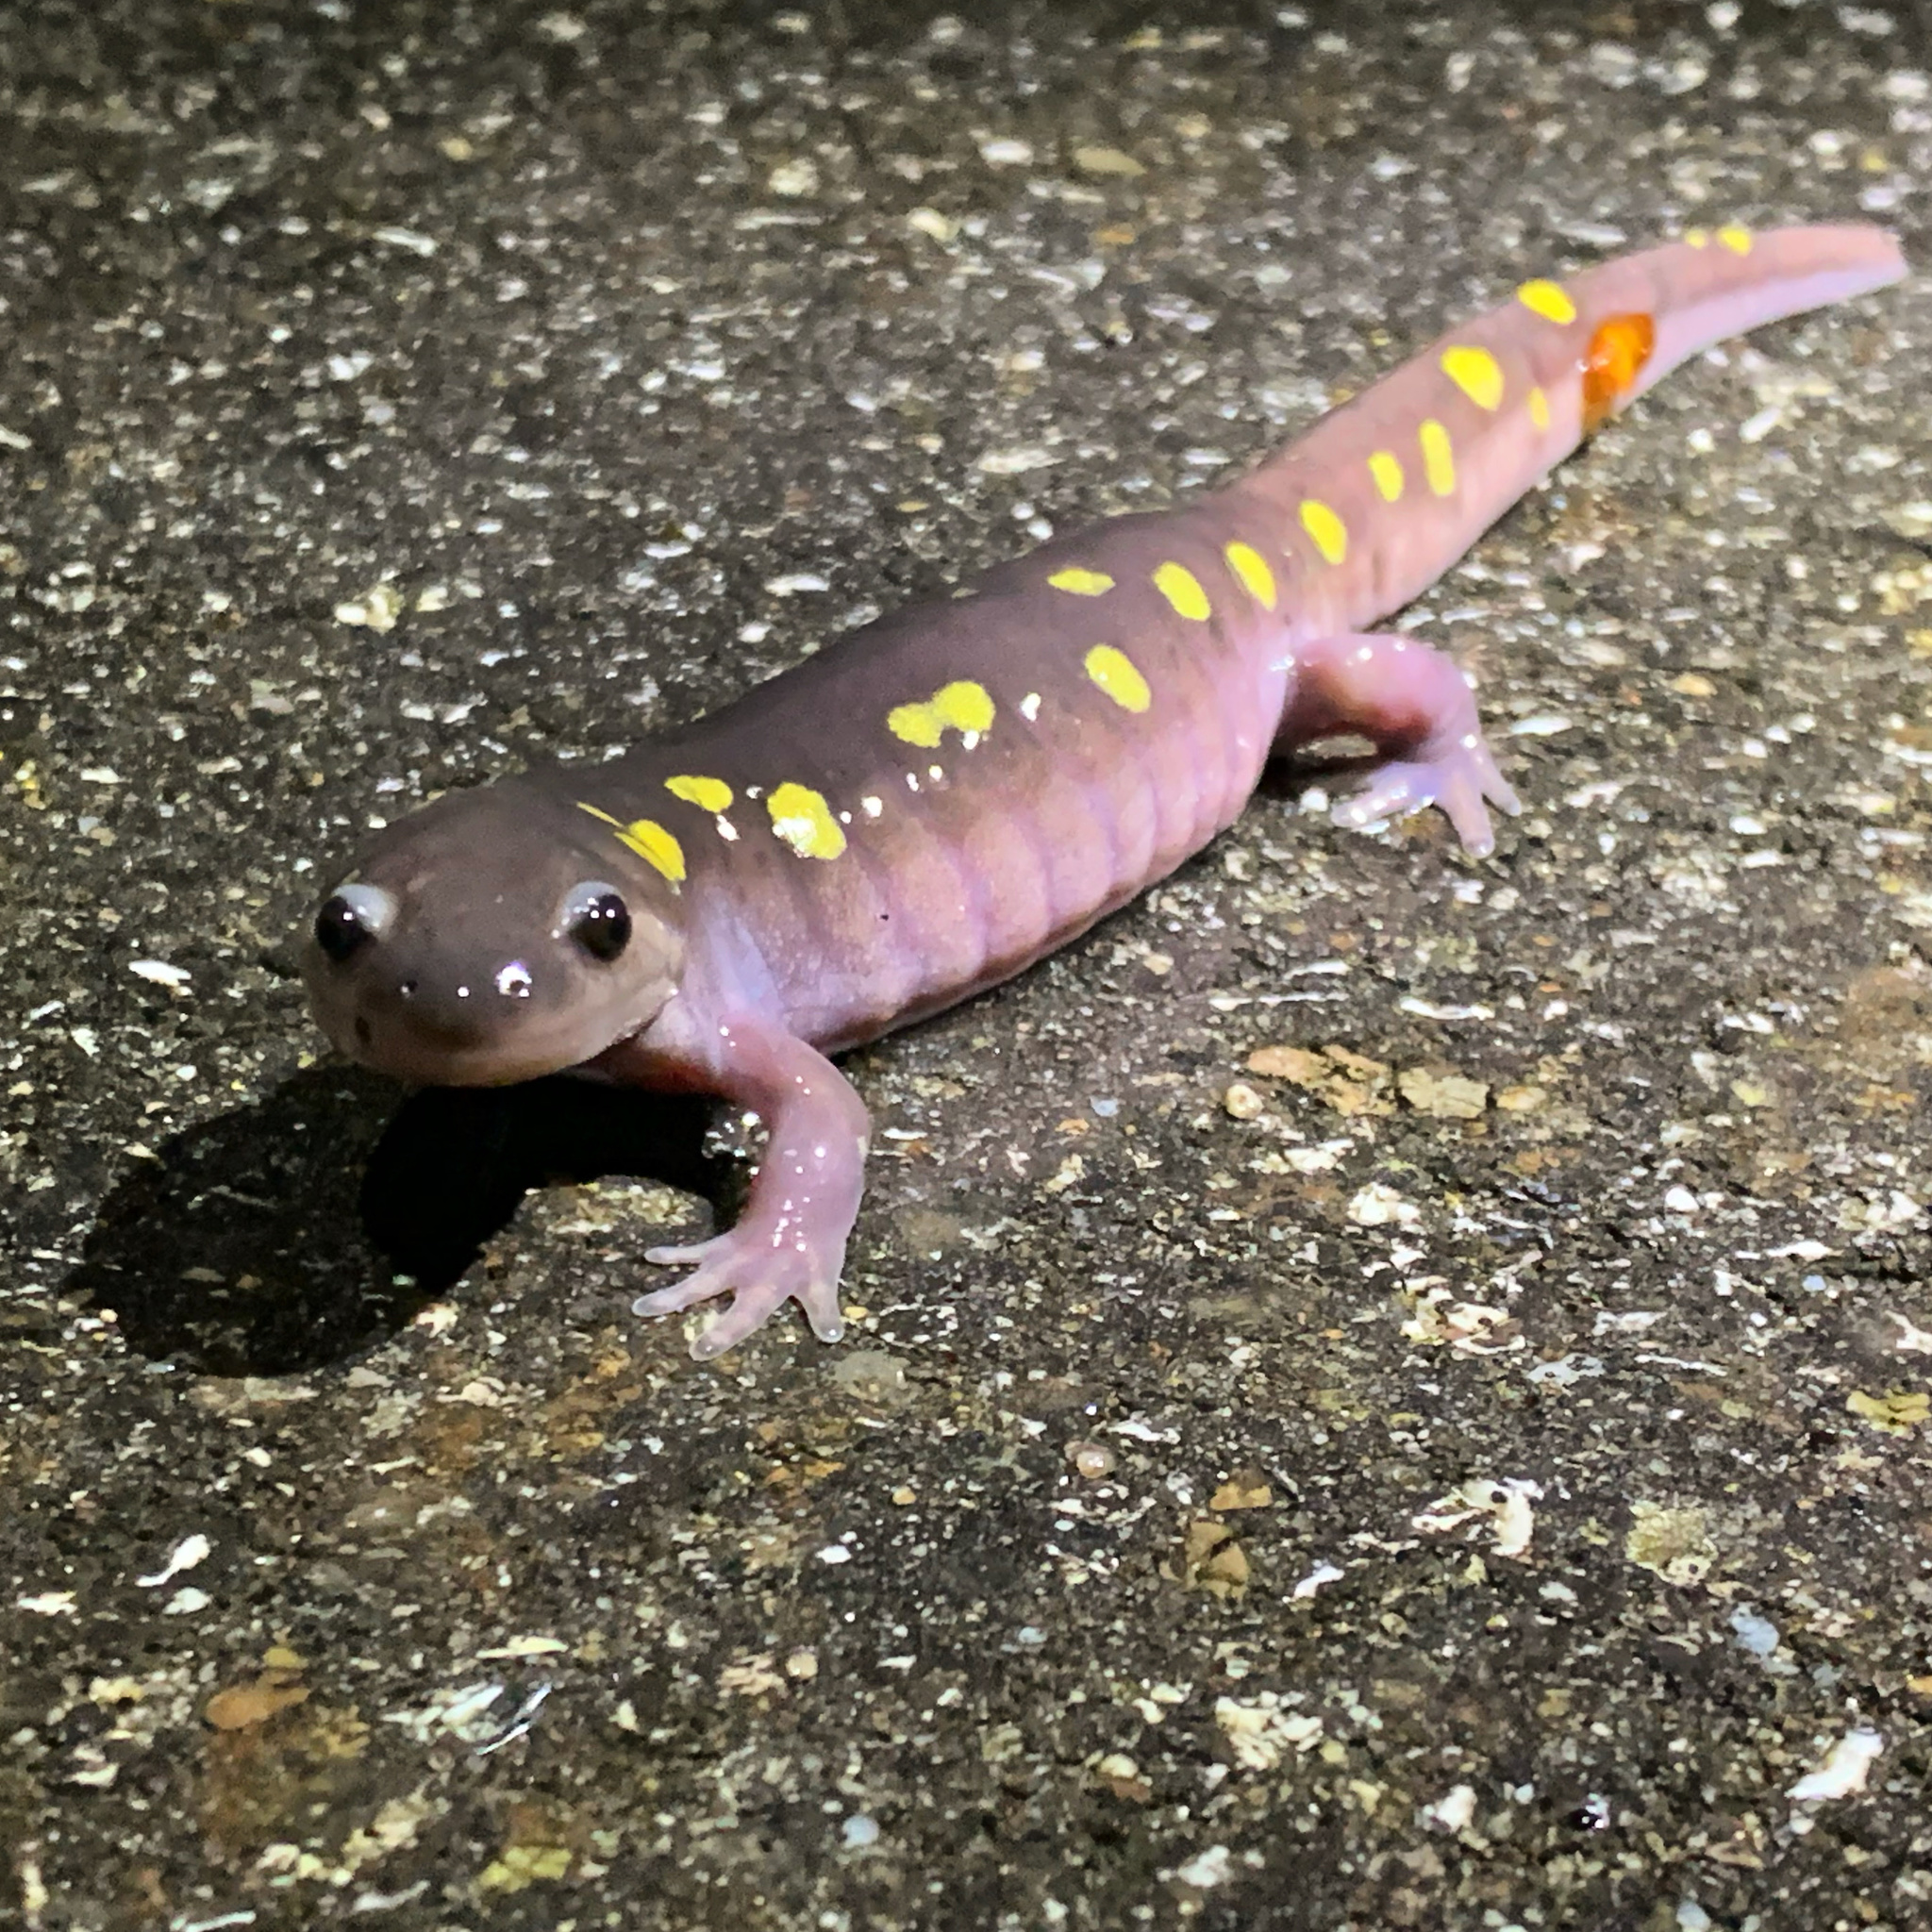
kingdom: Animalia
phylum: Chordata
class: Amphibia
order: Caudata
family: Ambystomatidae
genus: Ambystoma
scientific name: Ambystoma maculatum
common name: Spotted salamander
